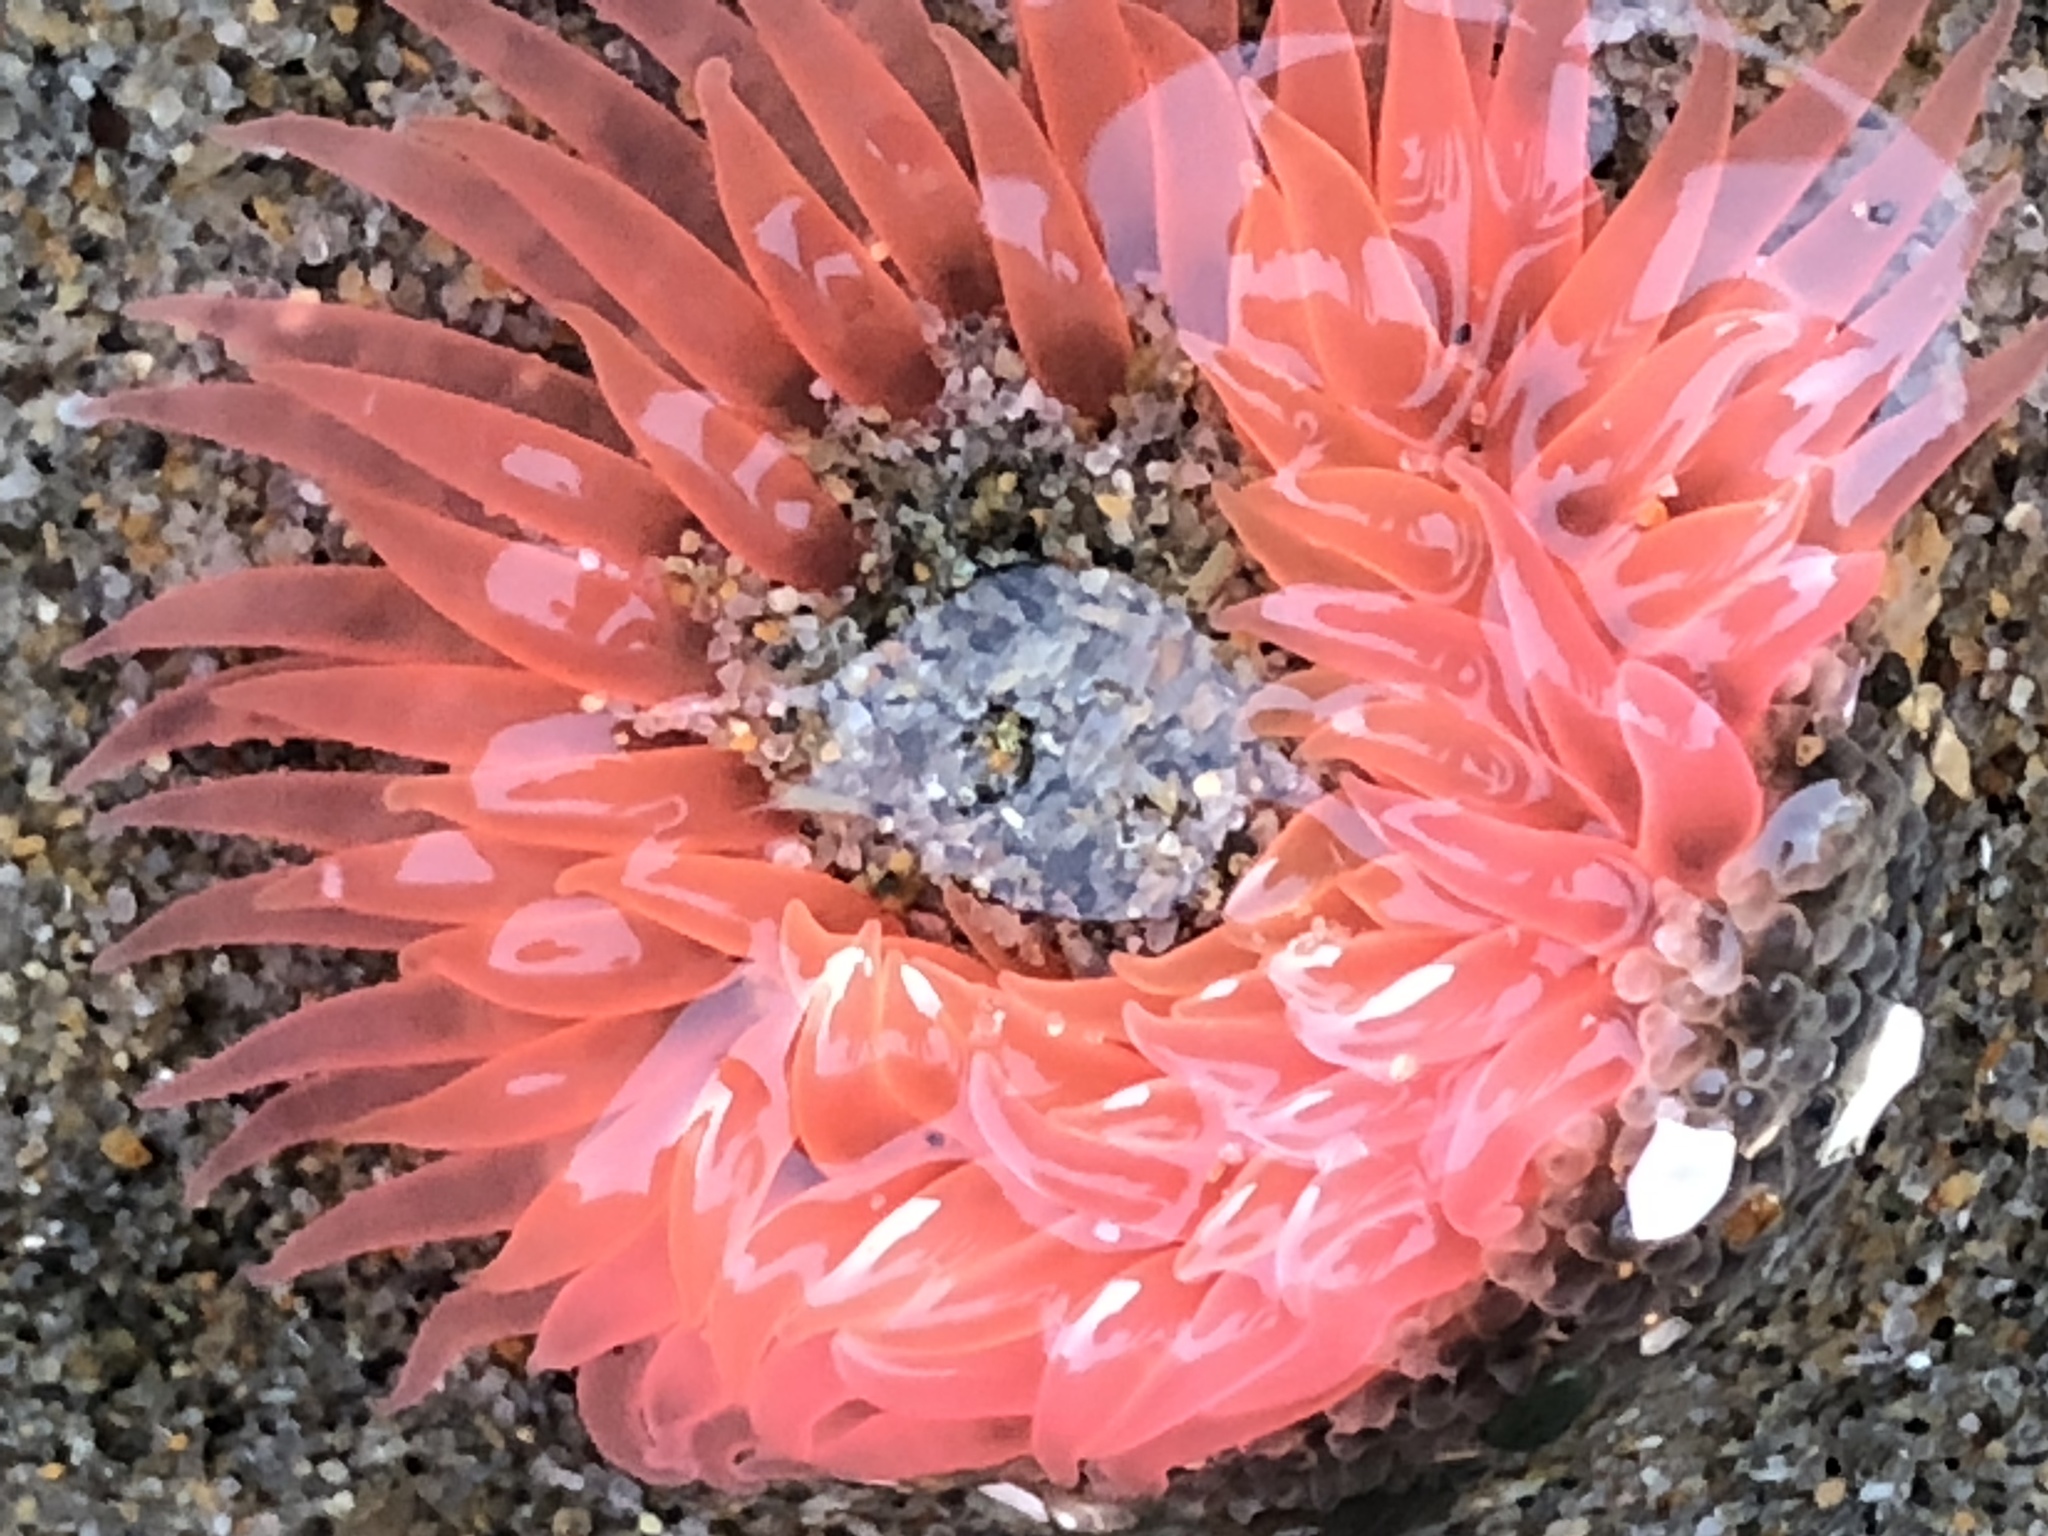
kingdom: Animalia
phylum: Cnidaria
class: Anthozoa
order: Actiniaria
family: Actiniidae
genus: Anthopleura
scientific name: Anthopleura artemisia
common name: Buried sea anemone
